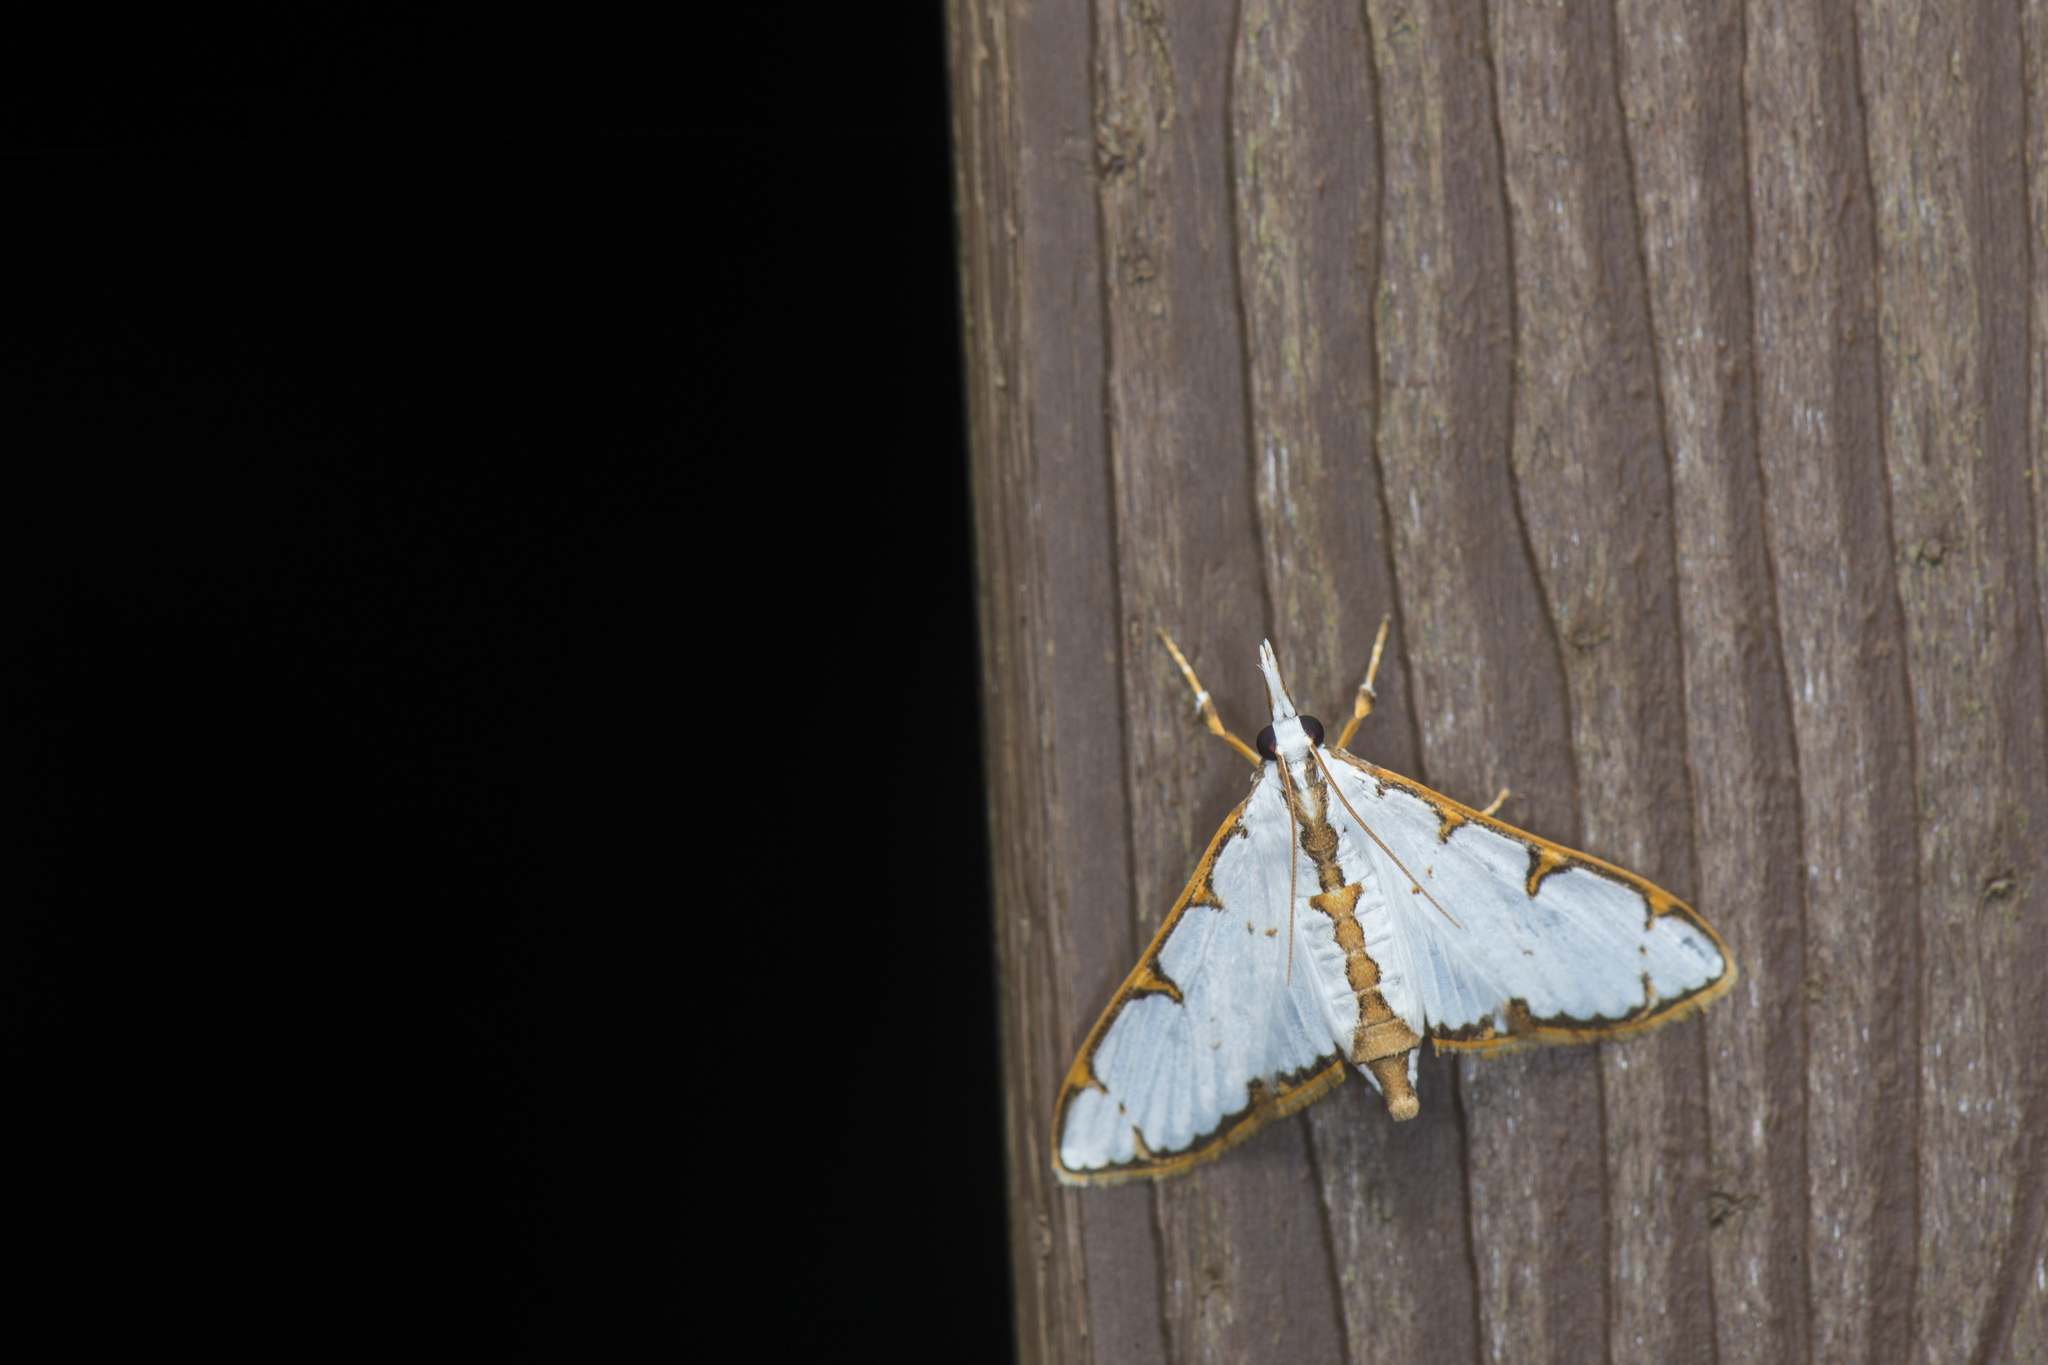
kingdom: Animalia
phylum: Arthropoda
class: Insecta
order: Lepidoptera
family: Crambidae
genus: Cirrhochrista
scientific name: Cirrhochrista spinuella
